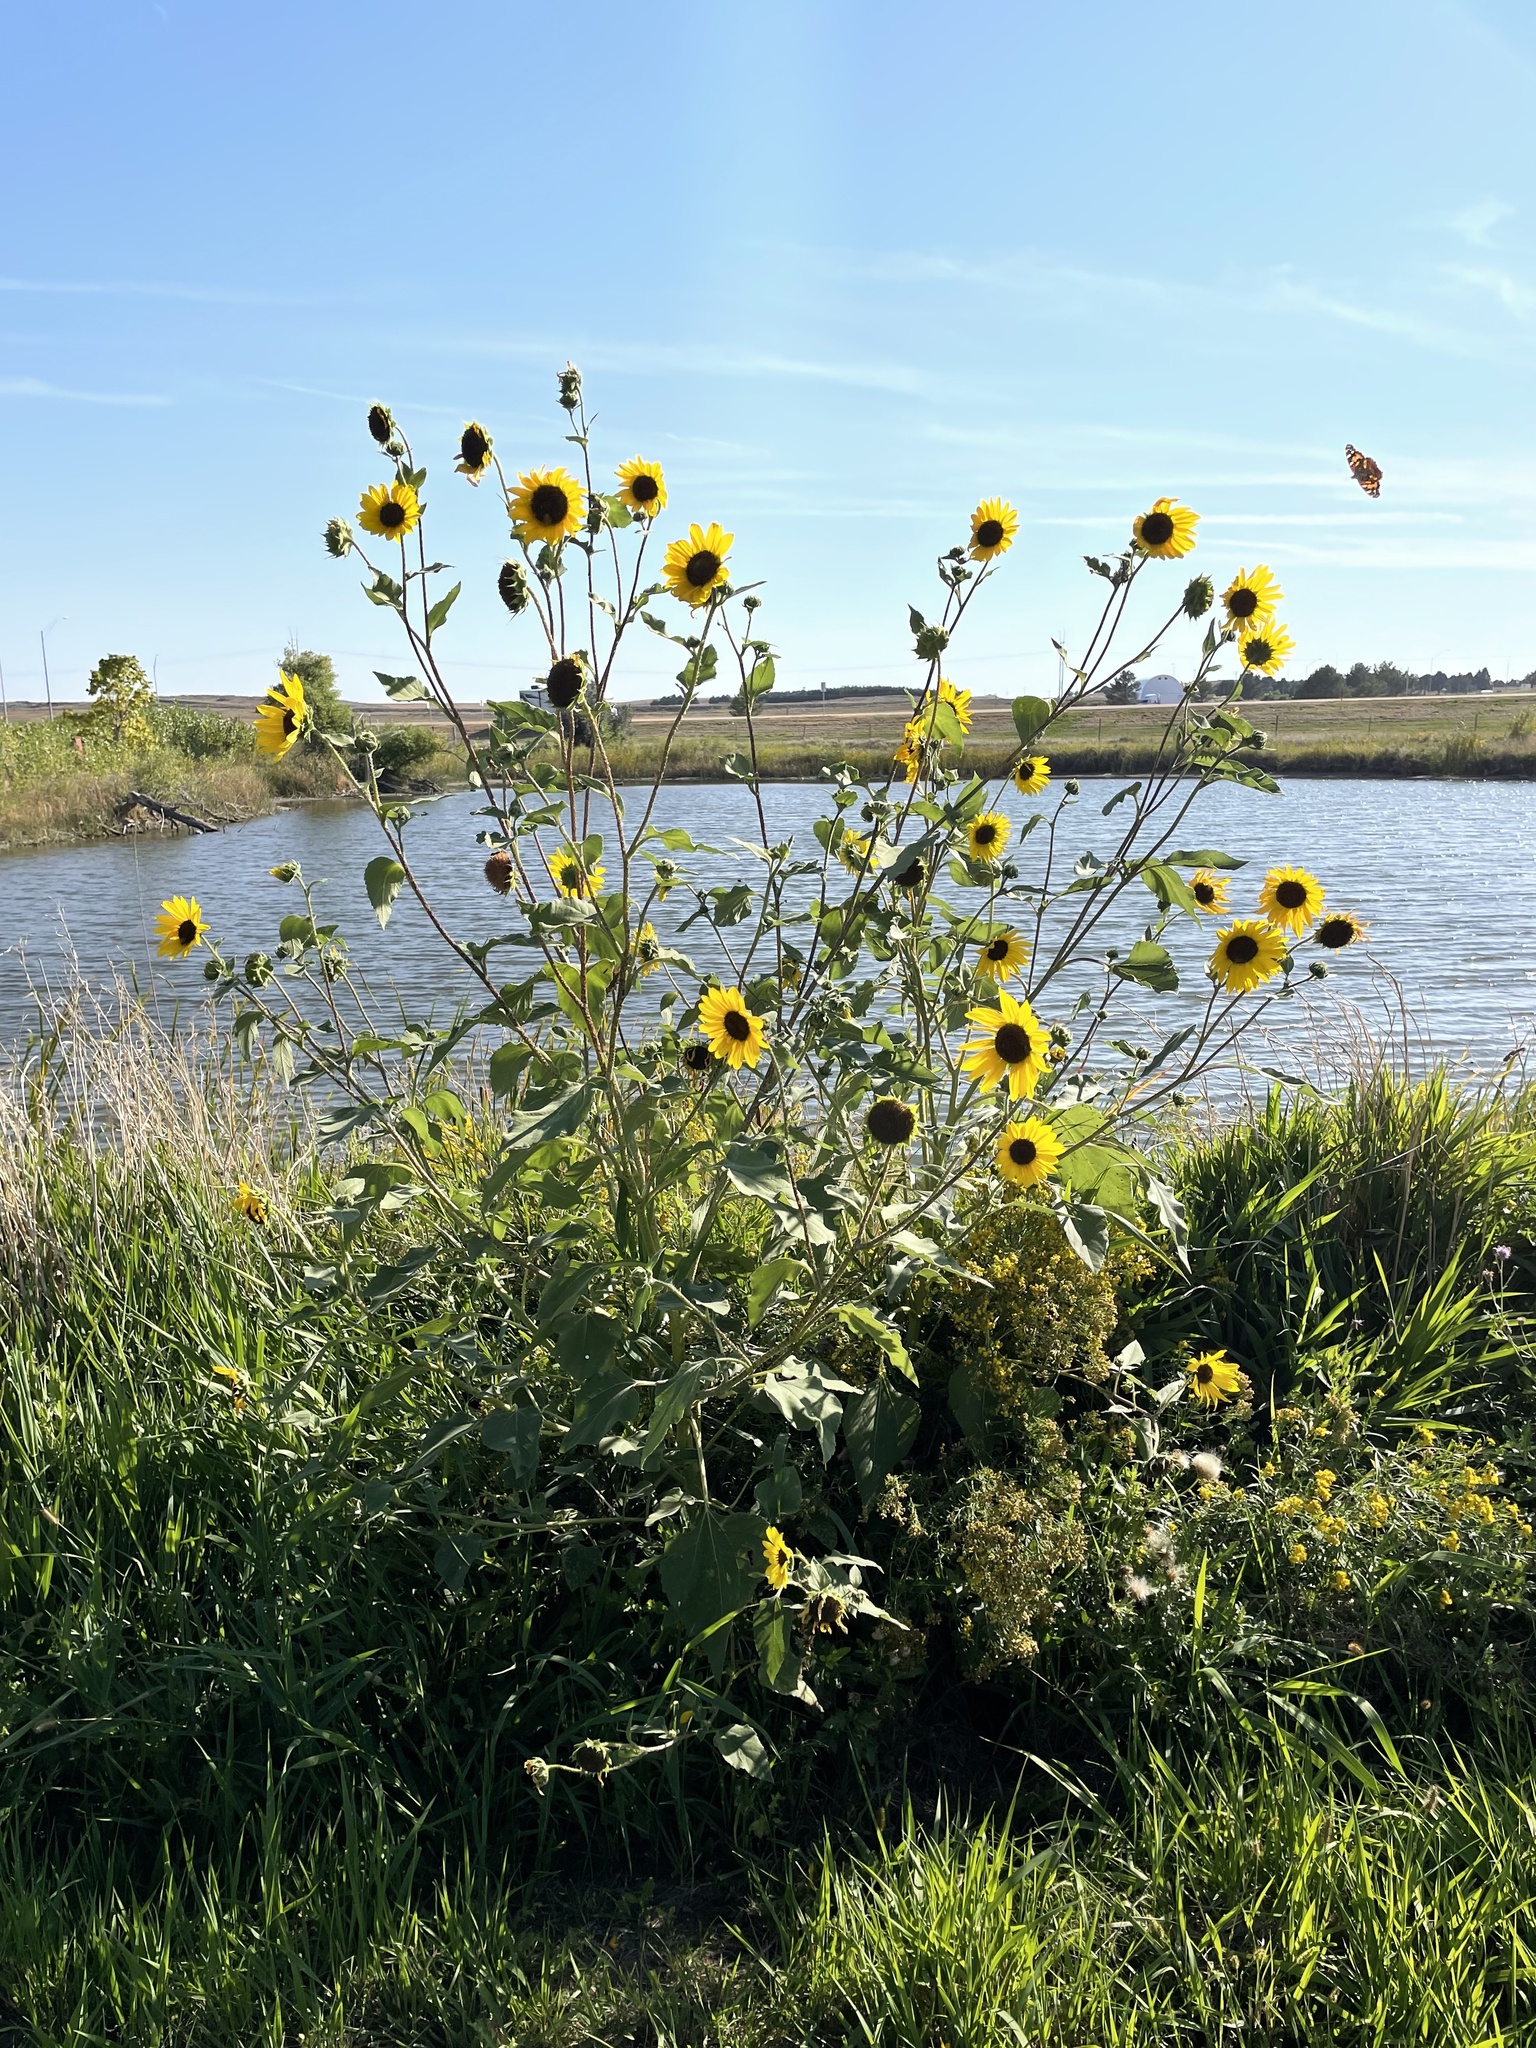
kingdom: Animalia
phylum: Arthropoda
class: Insecta
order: Lepidoptera
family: Nymphalidae
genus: Vanessa
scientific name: Vanessa cardui
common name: Painted lady
